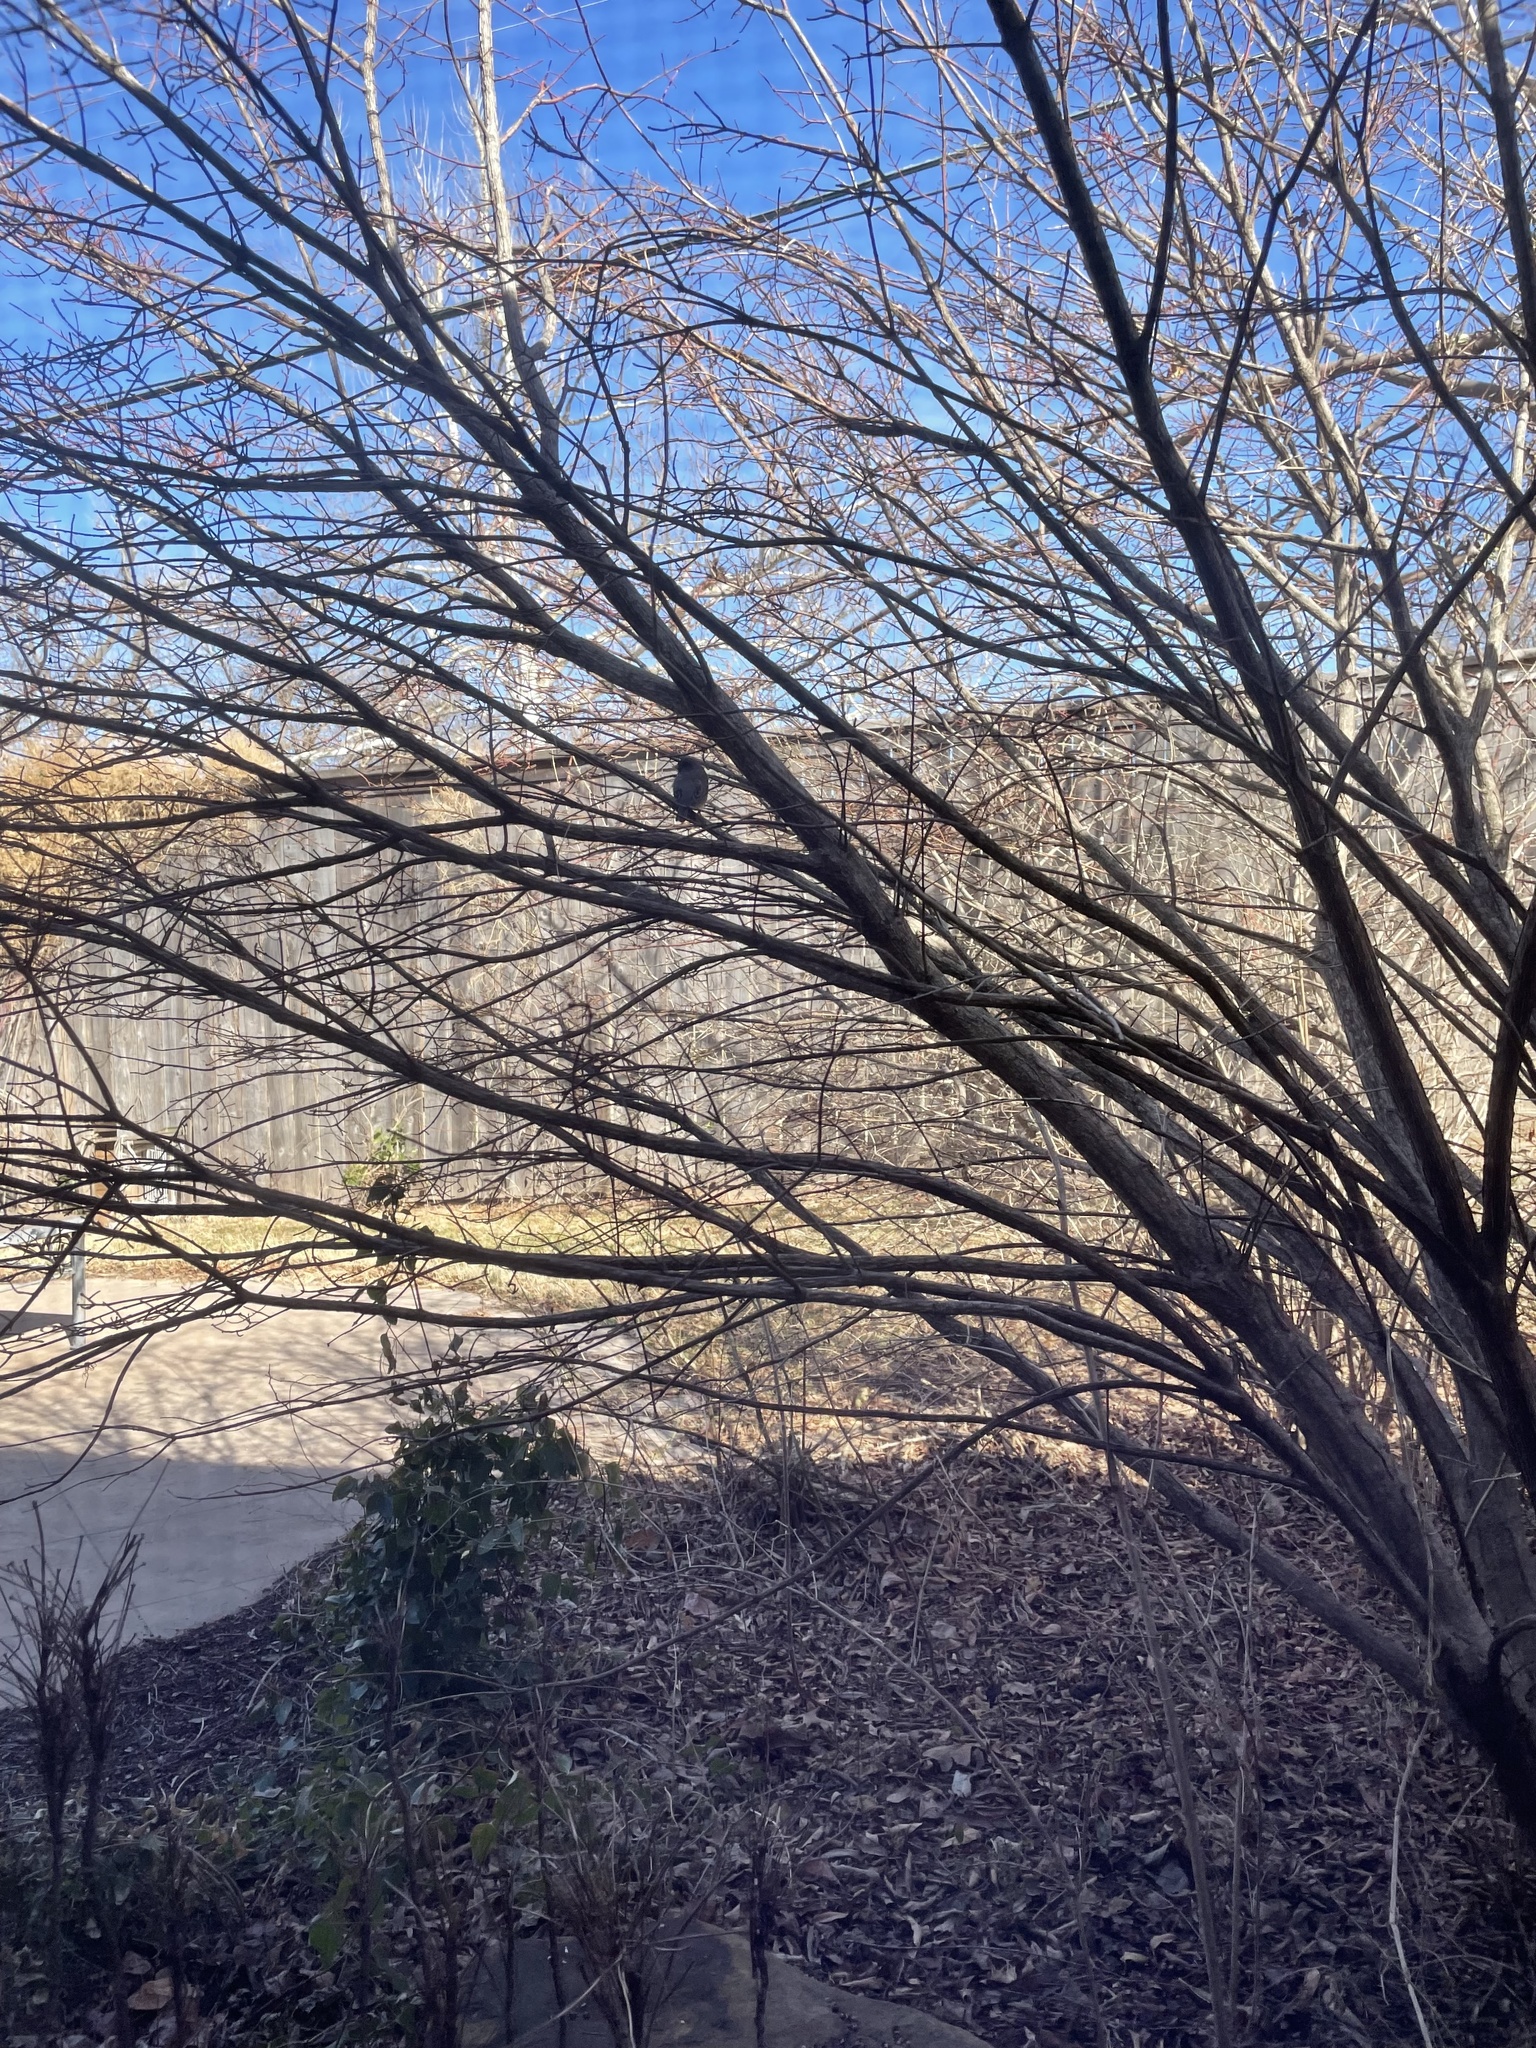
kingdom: Animalia
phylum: Chordata
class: Aves
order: Passeriformes
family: Passerellidae
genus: Junco
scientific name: Junco hyemalis
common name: Dark-eyed junco
